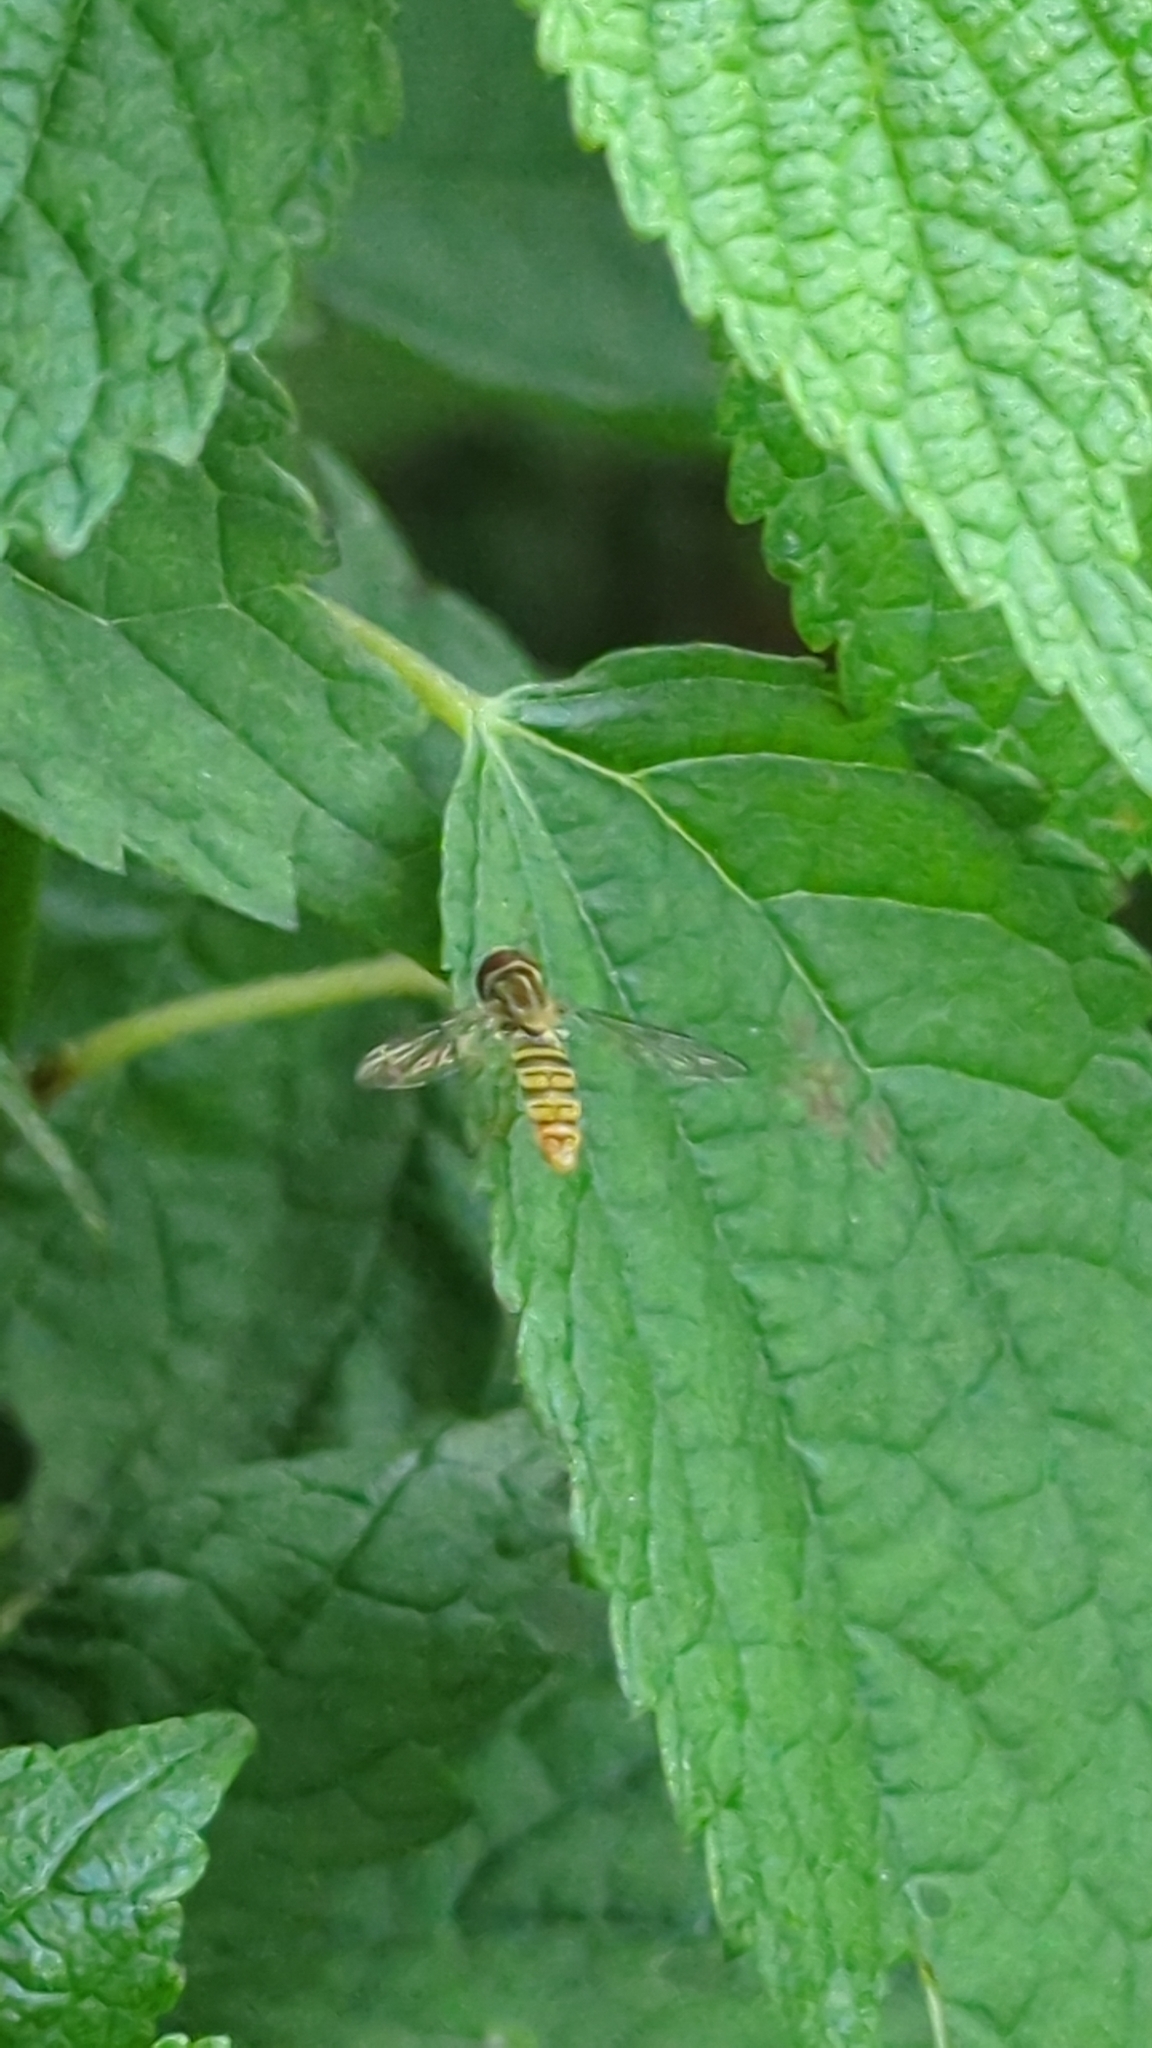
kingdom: Animalia
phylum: Arthropoda
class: Insecta
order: Diptera
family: Syrphidae
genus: Toxomerus
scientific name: Toxomerus politus
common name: Maize calligrapher
